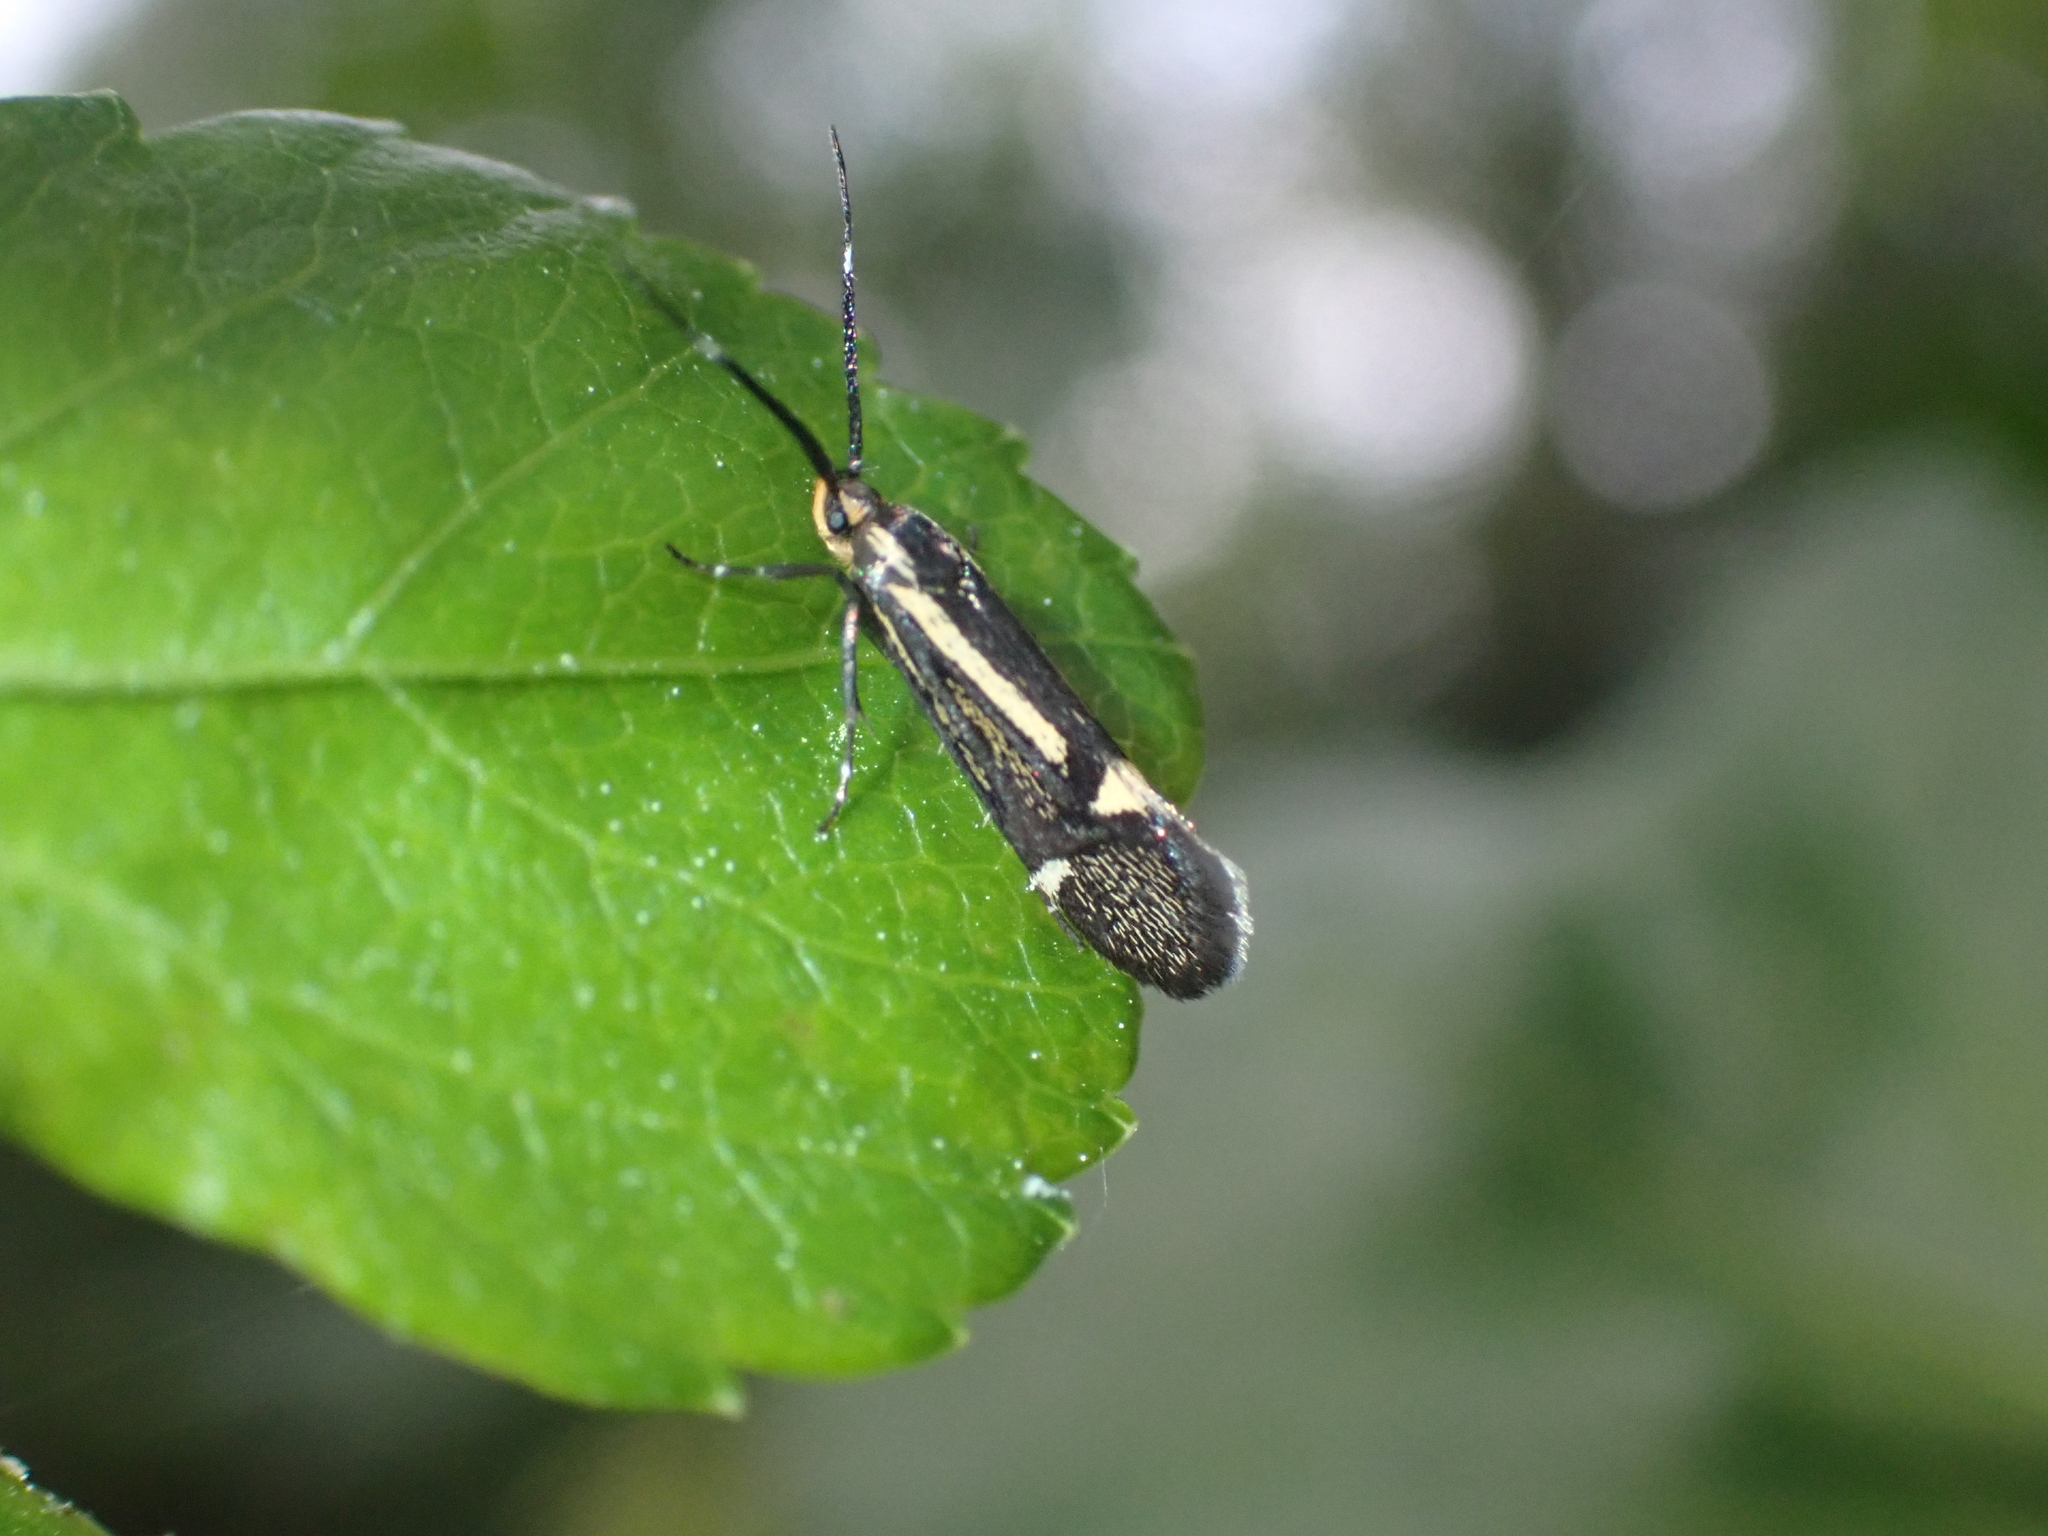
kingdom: Animalia
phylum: Arthropoda
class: Insecta
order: Lepidoptera
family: Oecophoridae
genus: Dafa
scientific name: Dafa Esperia sulphurella
